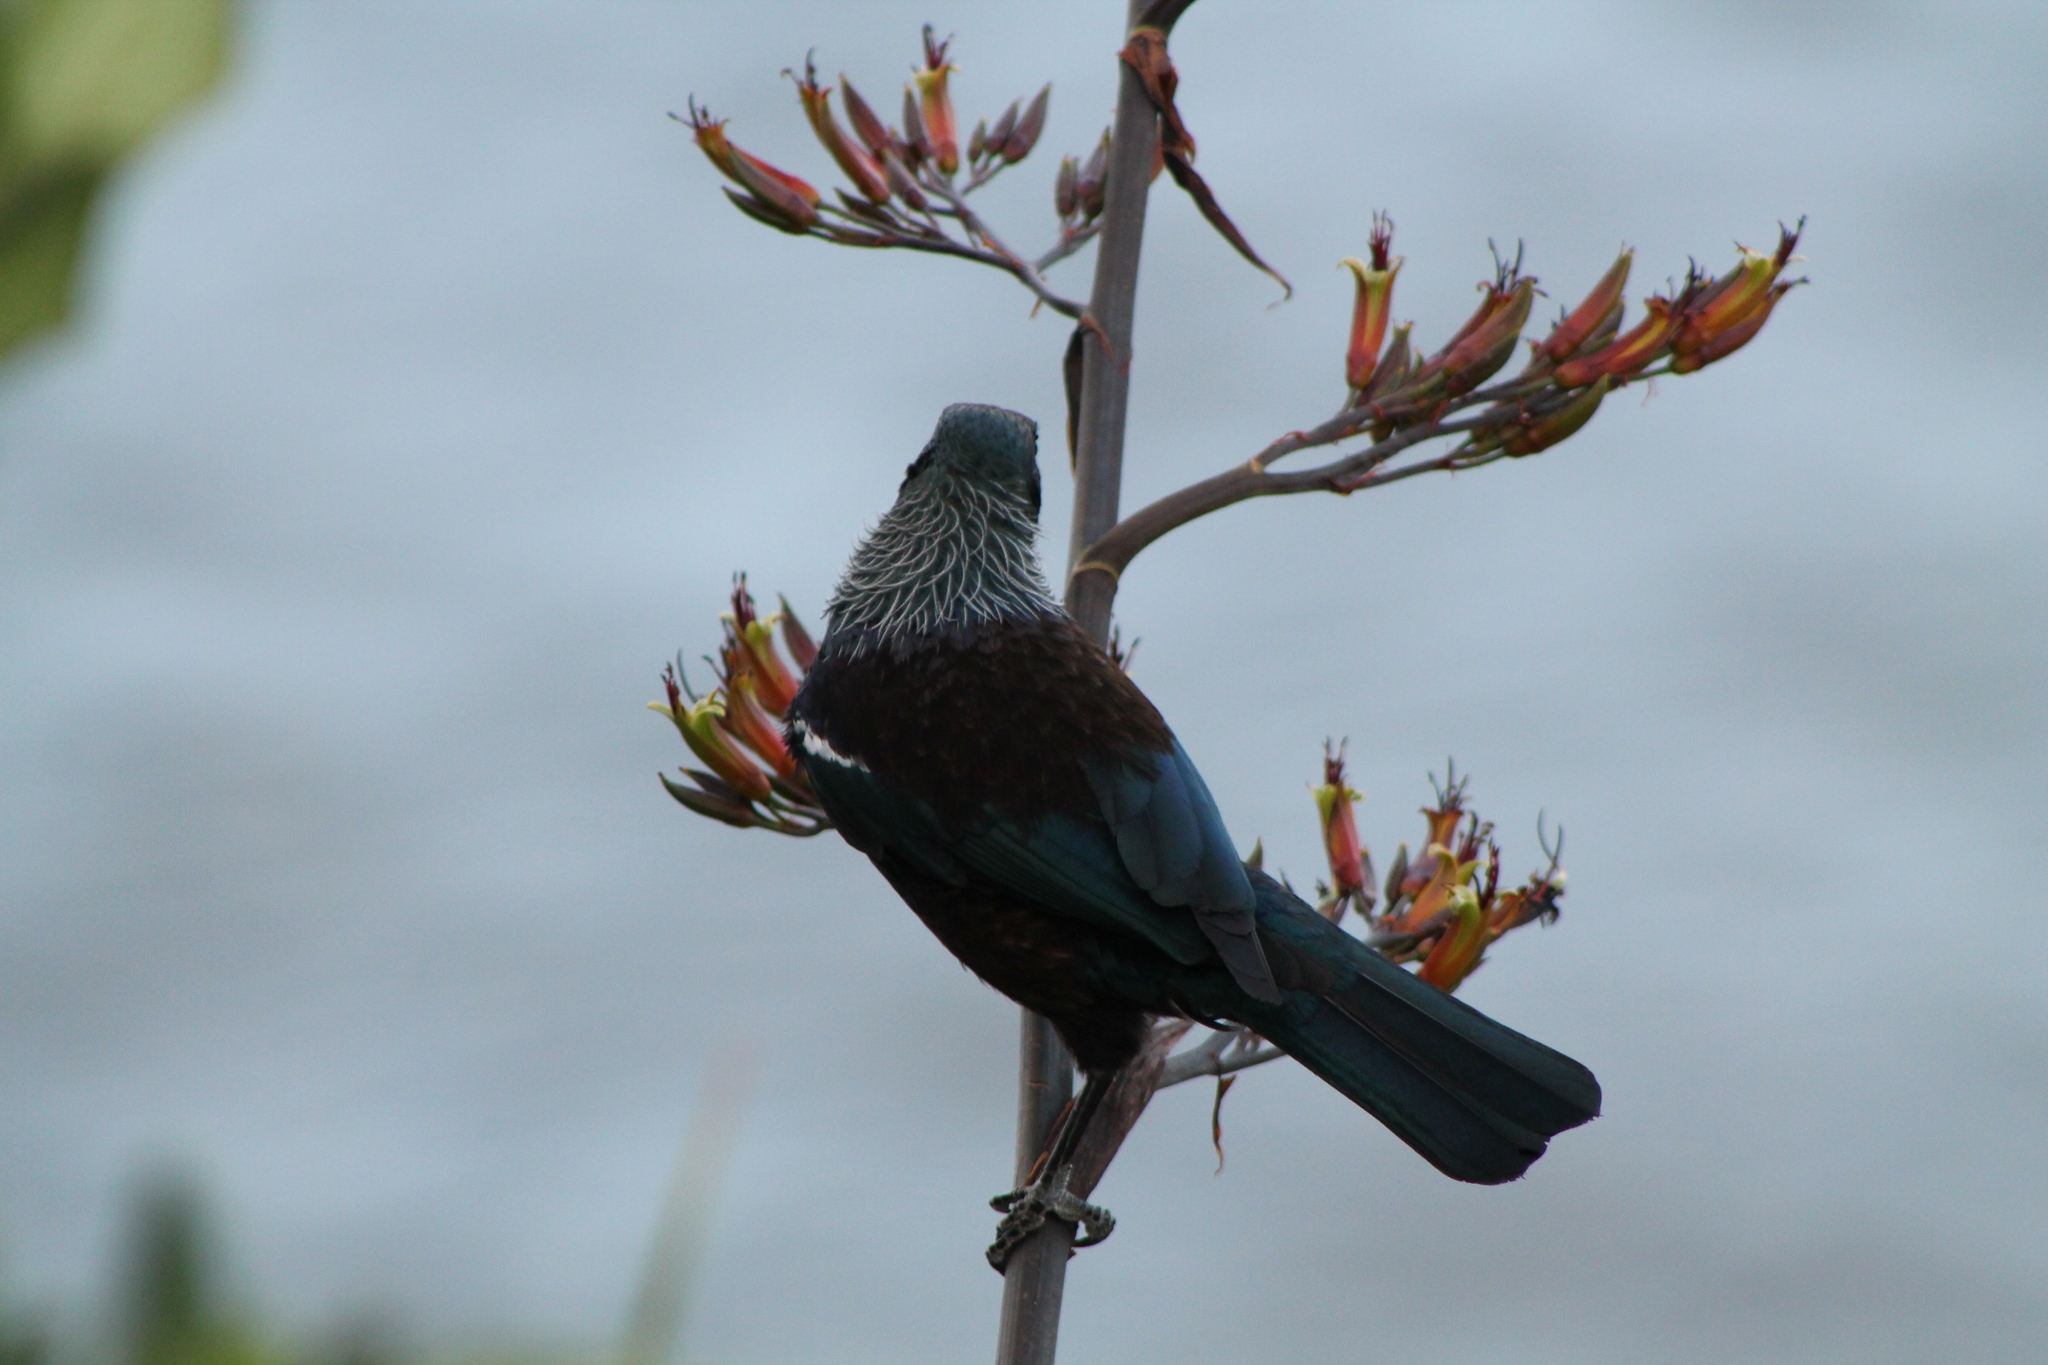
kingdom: Animalia
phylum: Chordata
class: Aves
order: Passeriformes
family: Meliphagidae
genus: Prosthemadera
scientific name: Prosthemadera novaeseelandiae
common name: Tui
